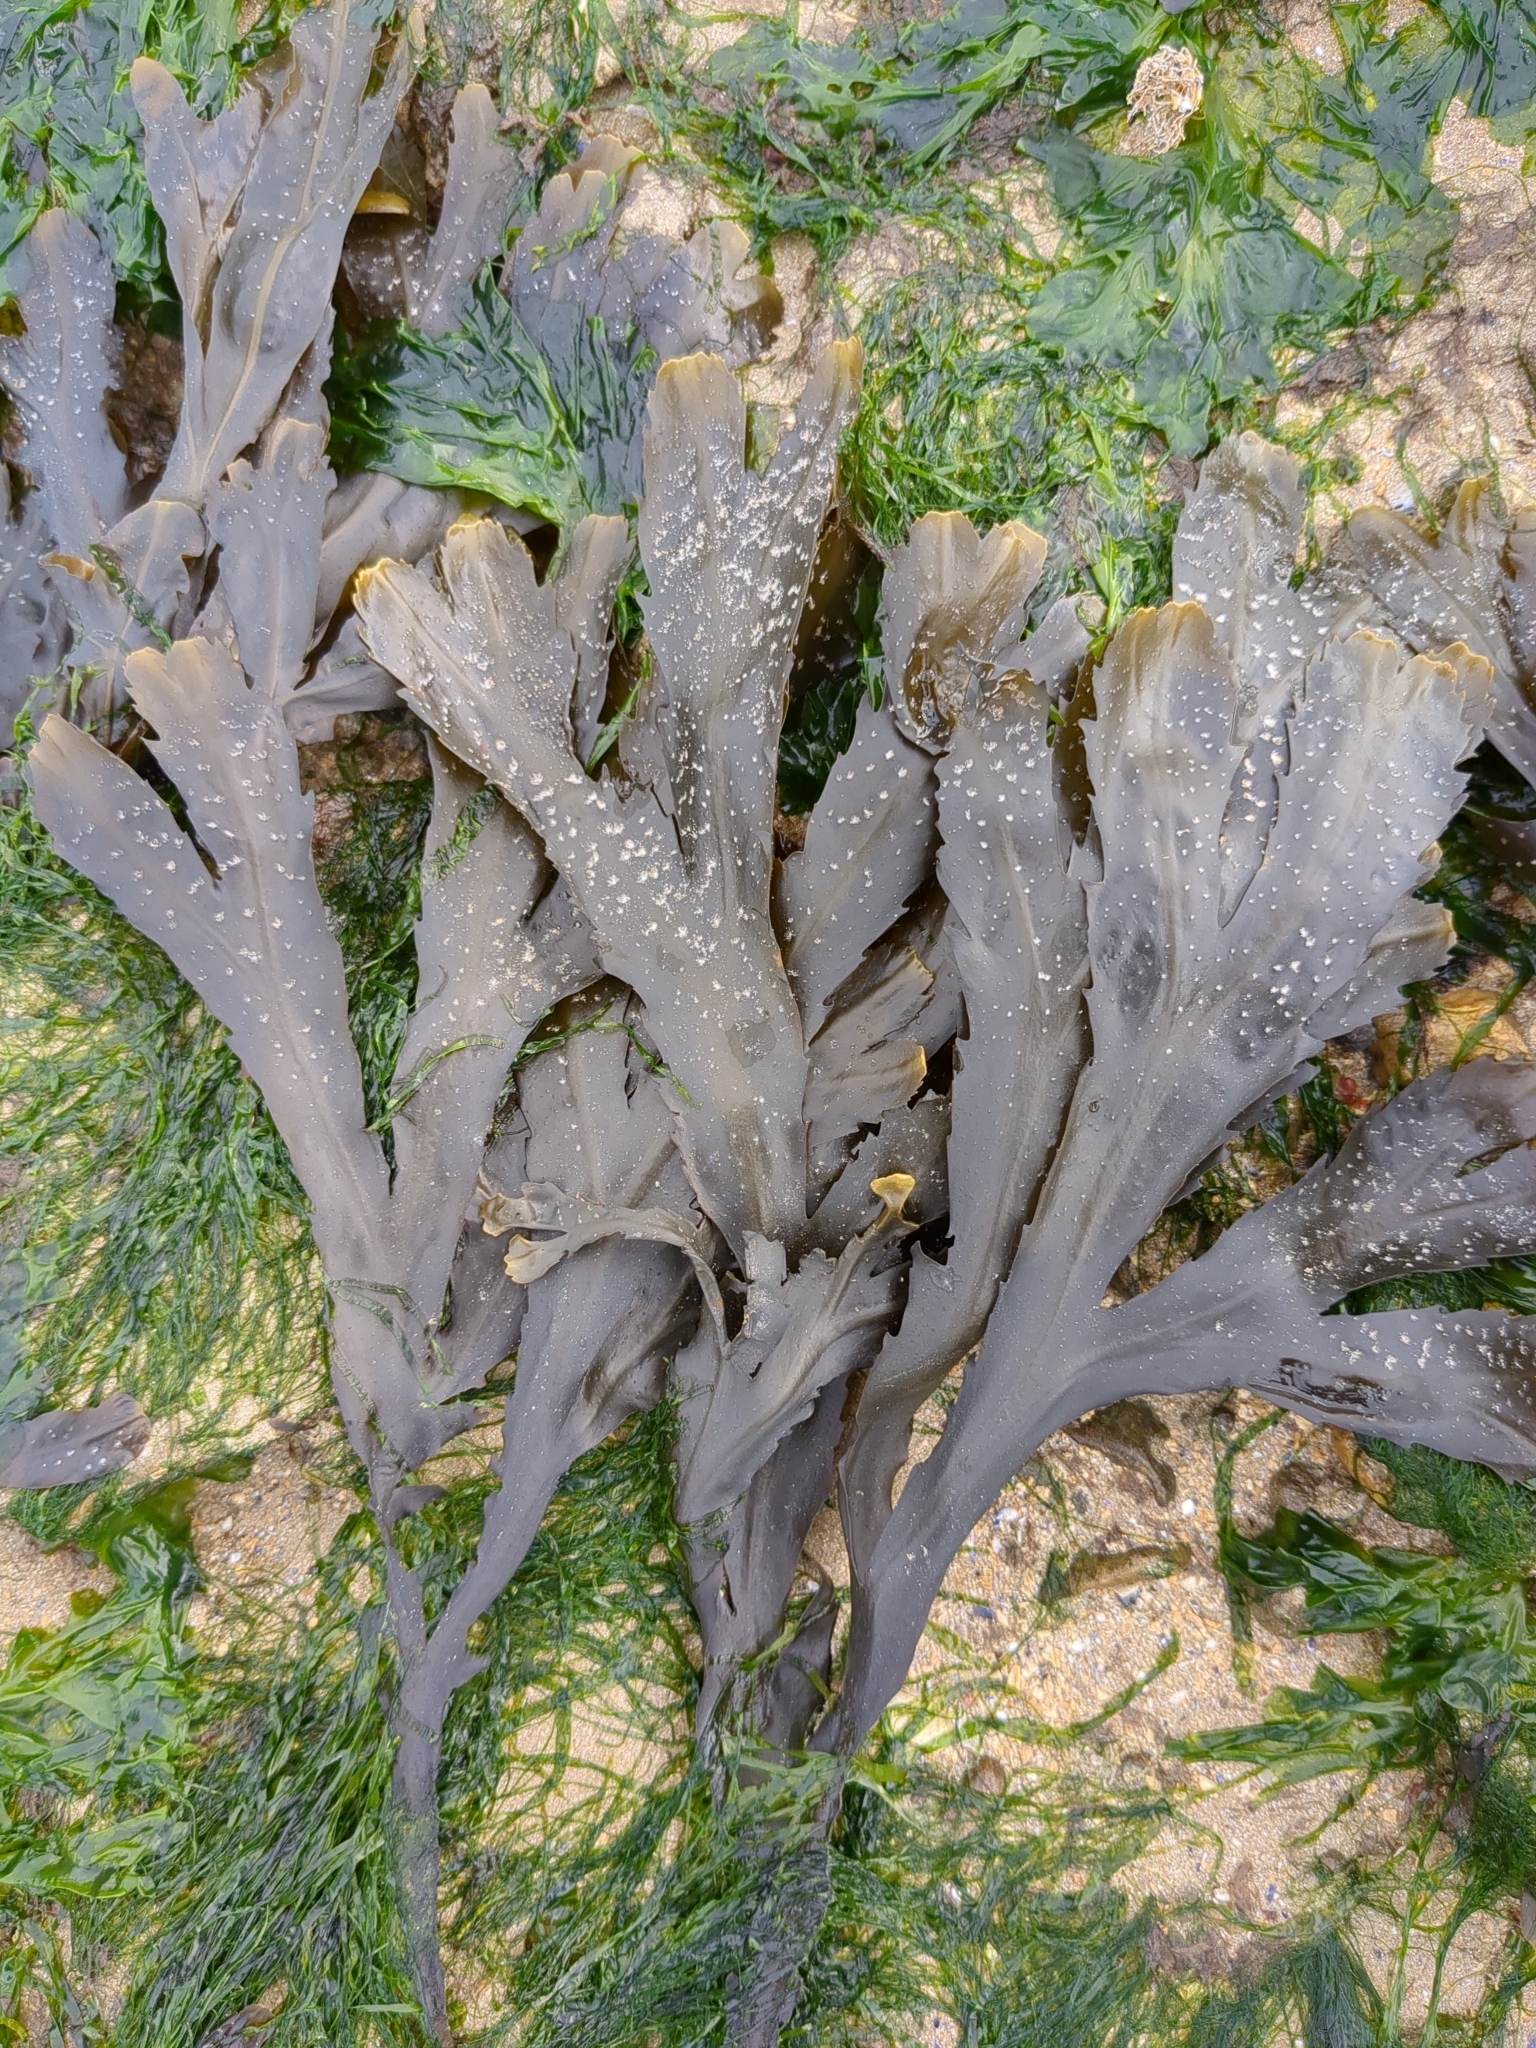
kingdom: Chromista
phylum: Ochrophyta
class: Phaeophyceae
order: Fucales
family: Fucaceae
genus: Fucus
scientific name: Fucus serratus
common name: Toothed wrack
